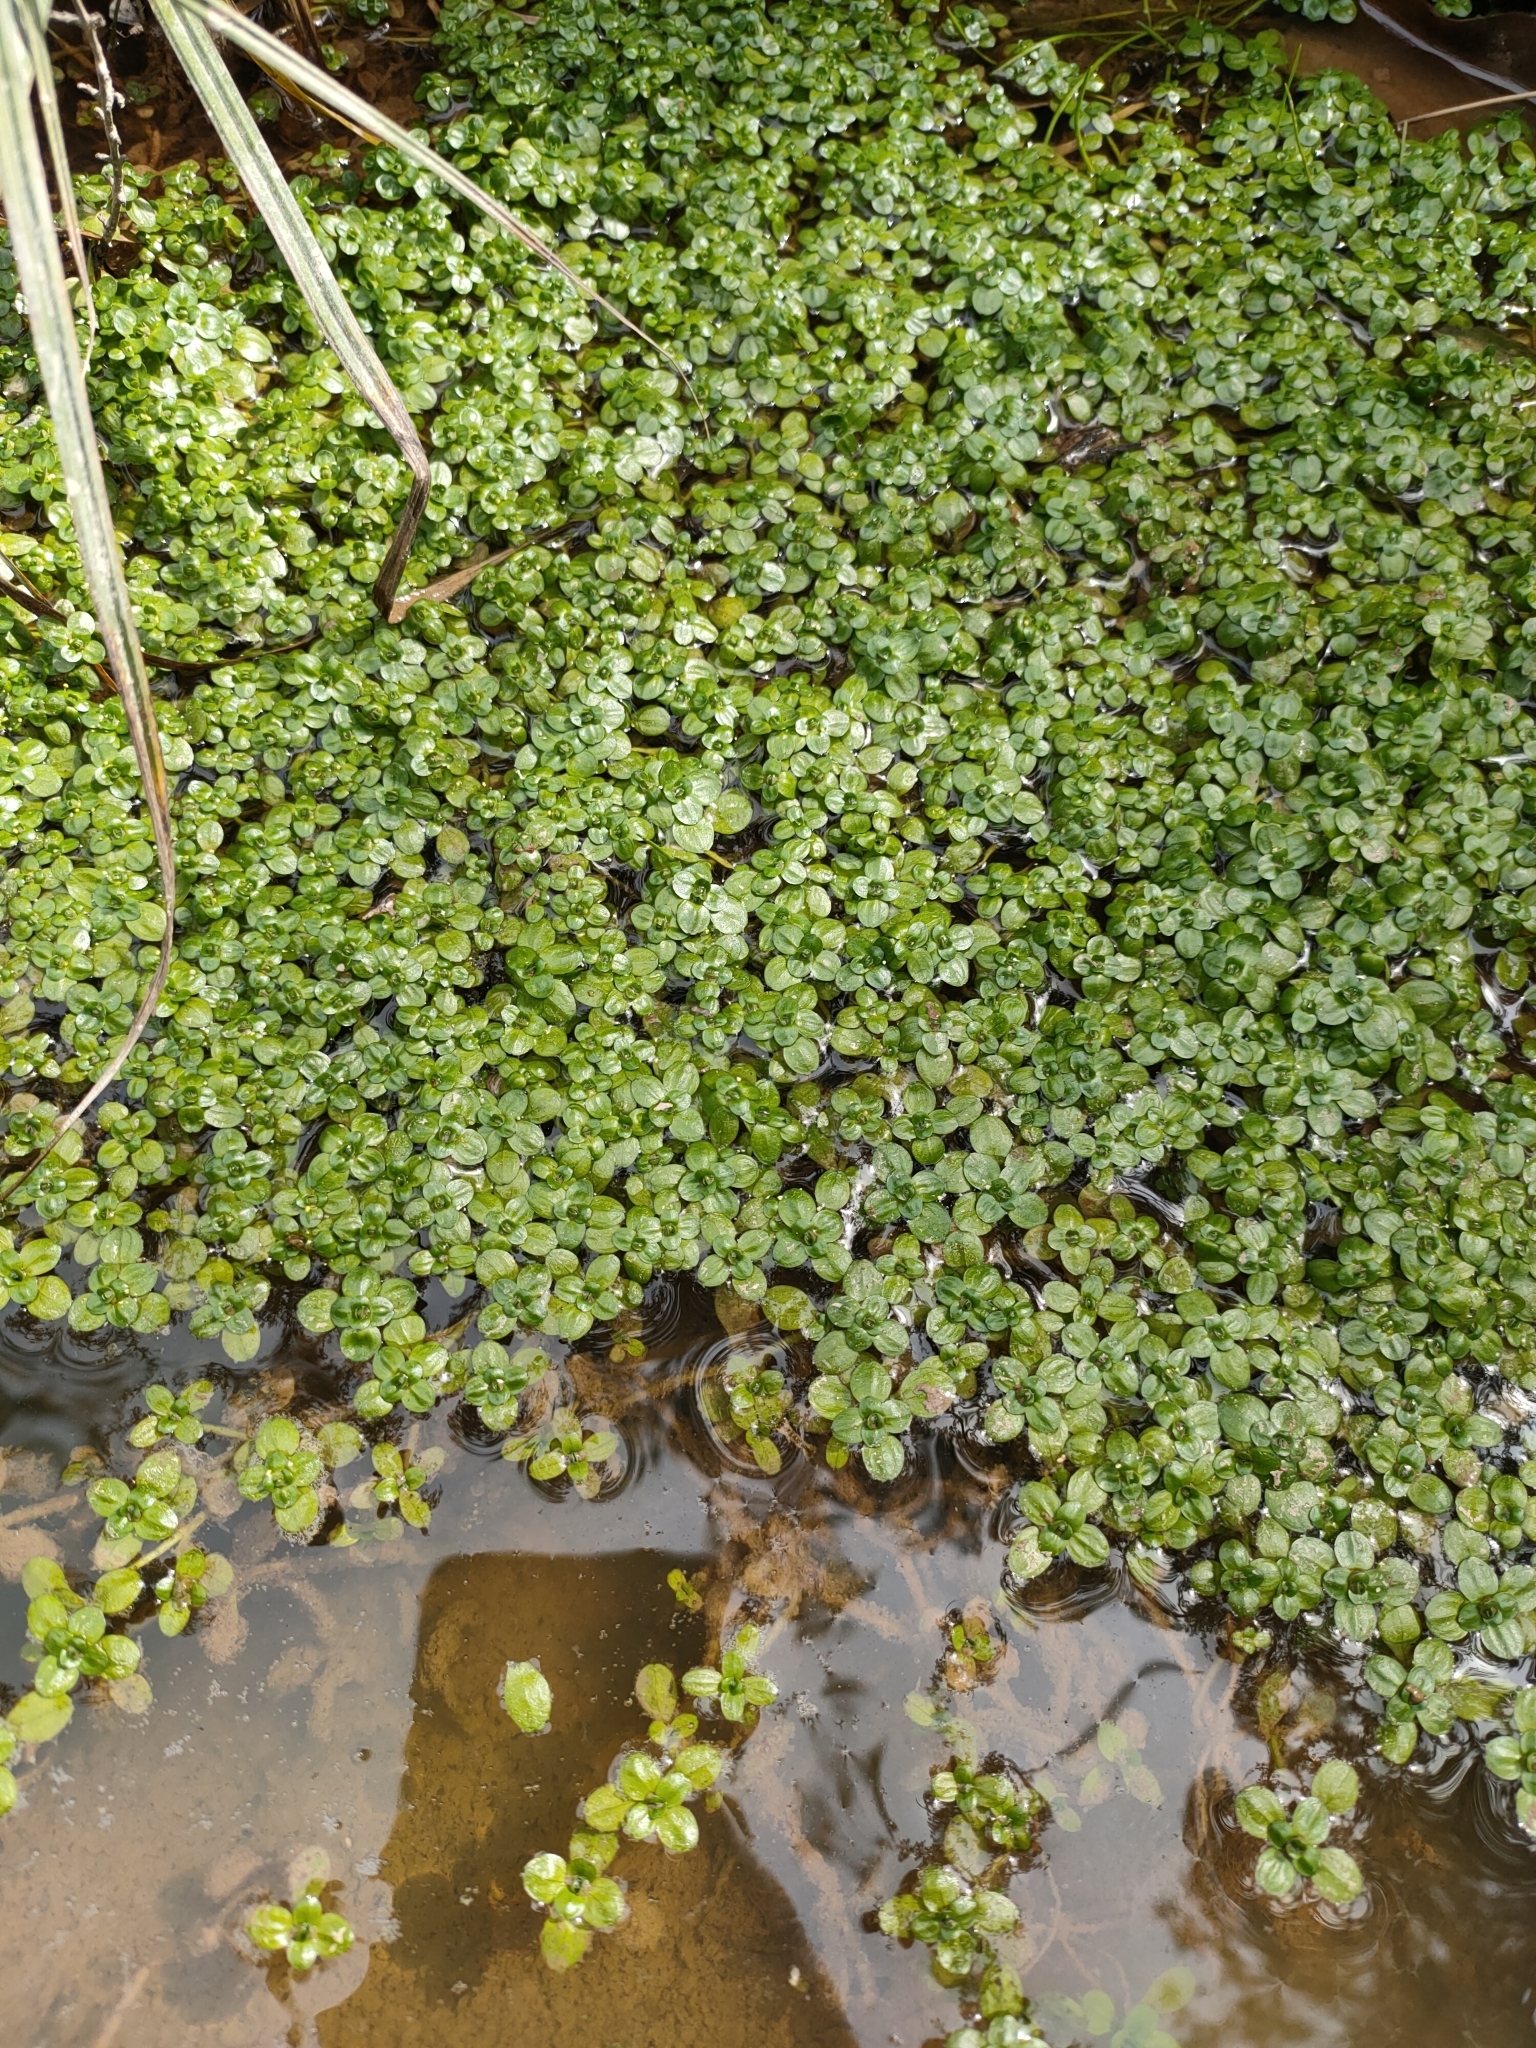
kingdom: Plantae
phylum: Tracheophyta
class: Magnoliopsida
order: Lamiales
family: Plantaginaceae
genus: Callitriche
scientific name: Callitriche stagnalis
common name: Common water-starwort
